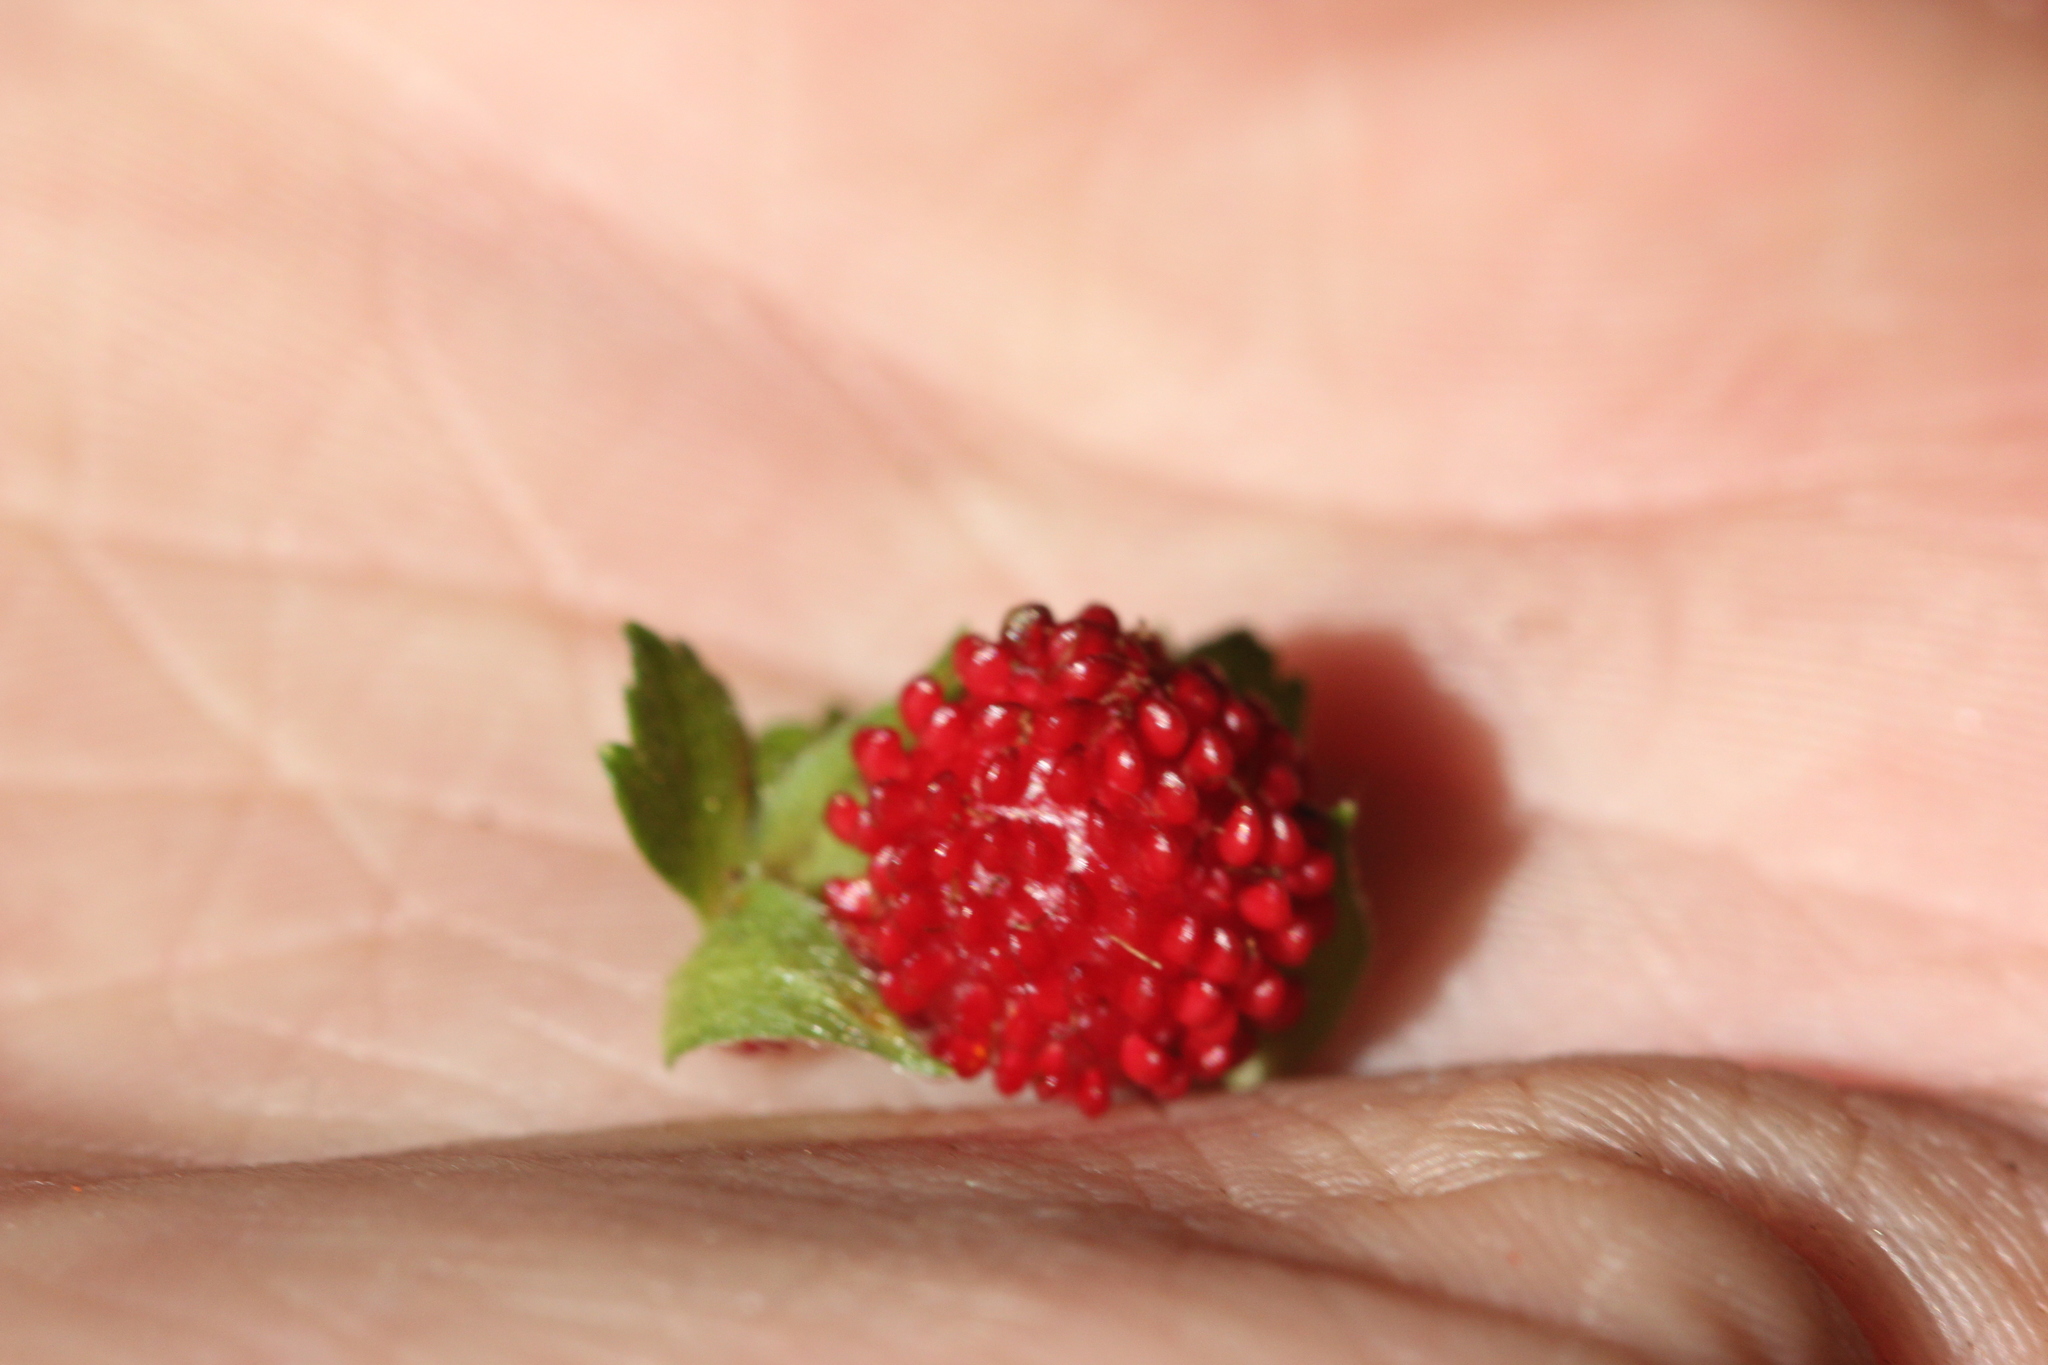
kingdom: Plantae
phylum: Tracheophyta
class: Magnoliopsida
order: Rosales
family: Rosaceae
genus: Potentilla
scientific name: Potentilla indica
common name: Yellow-flowered strawberry
